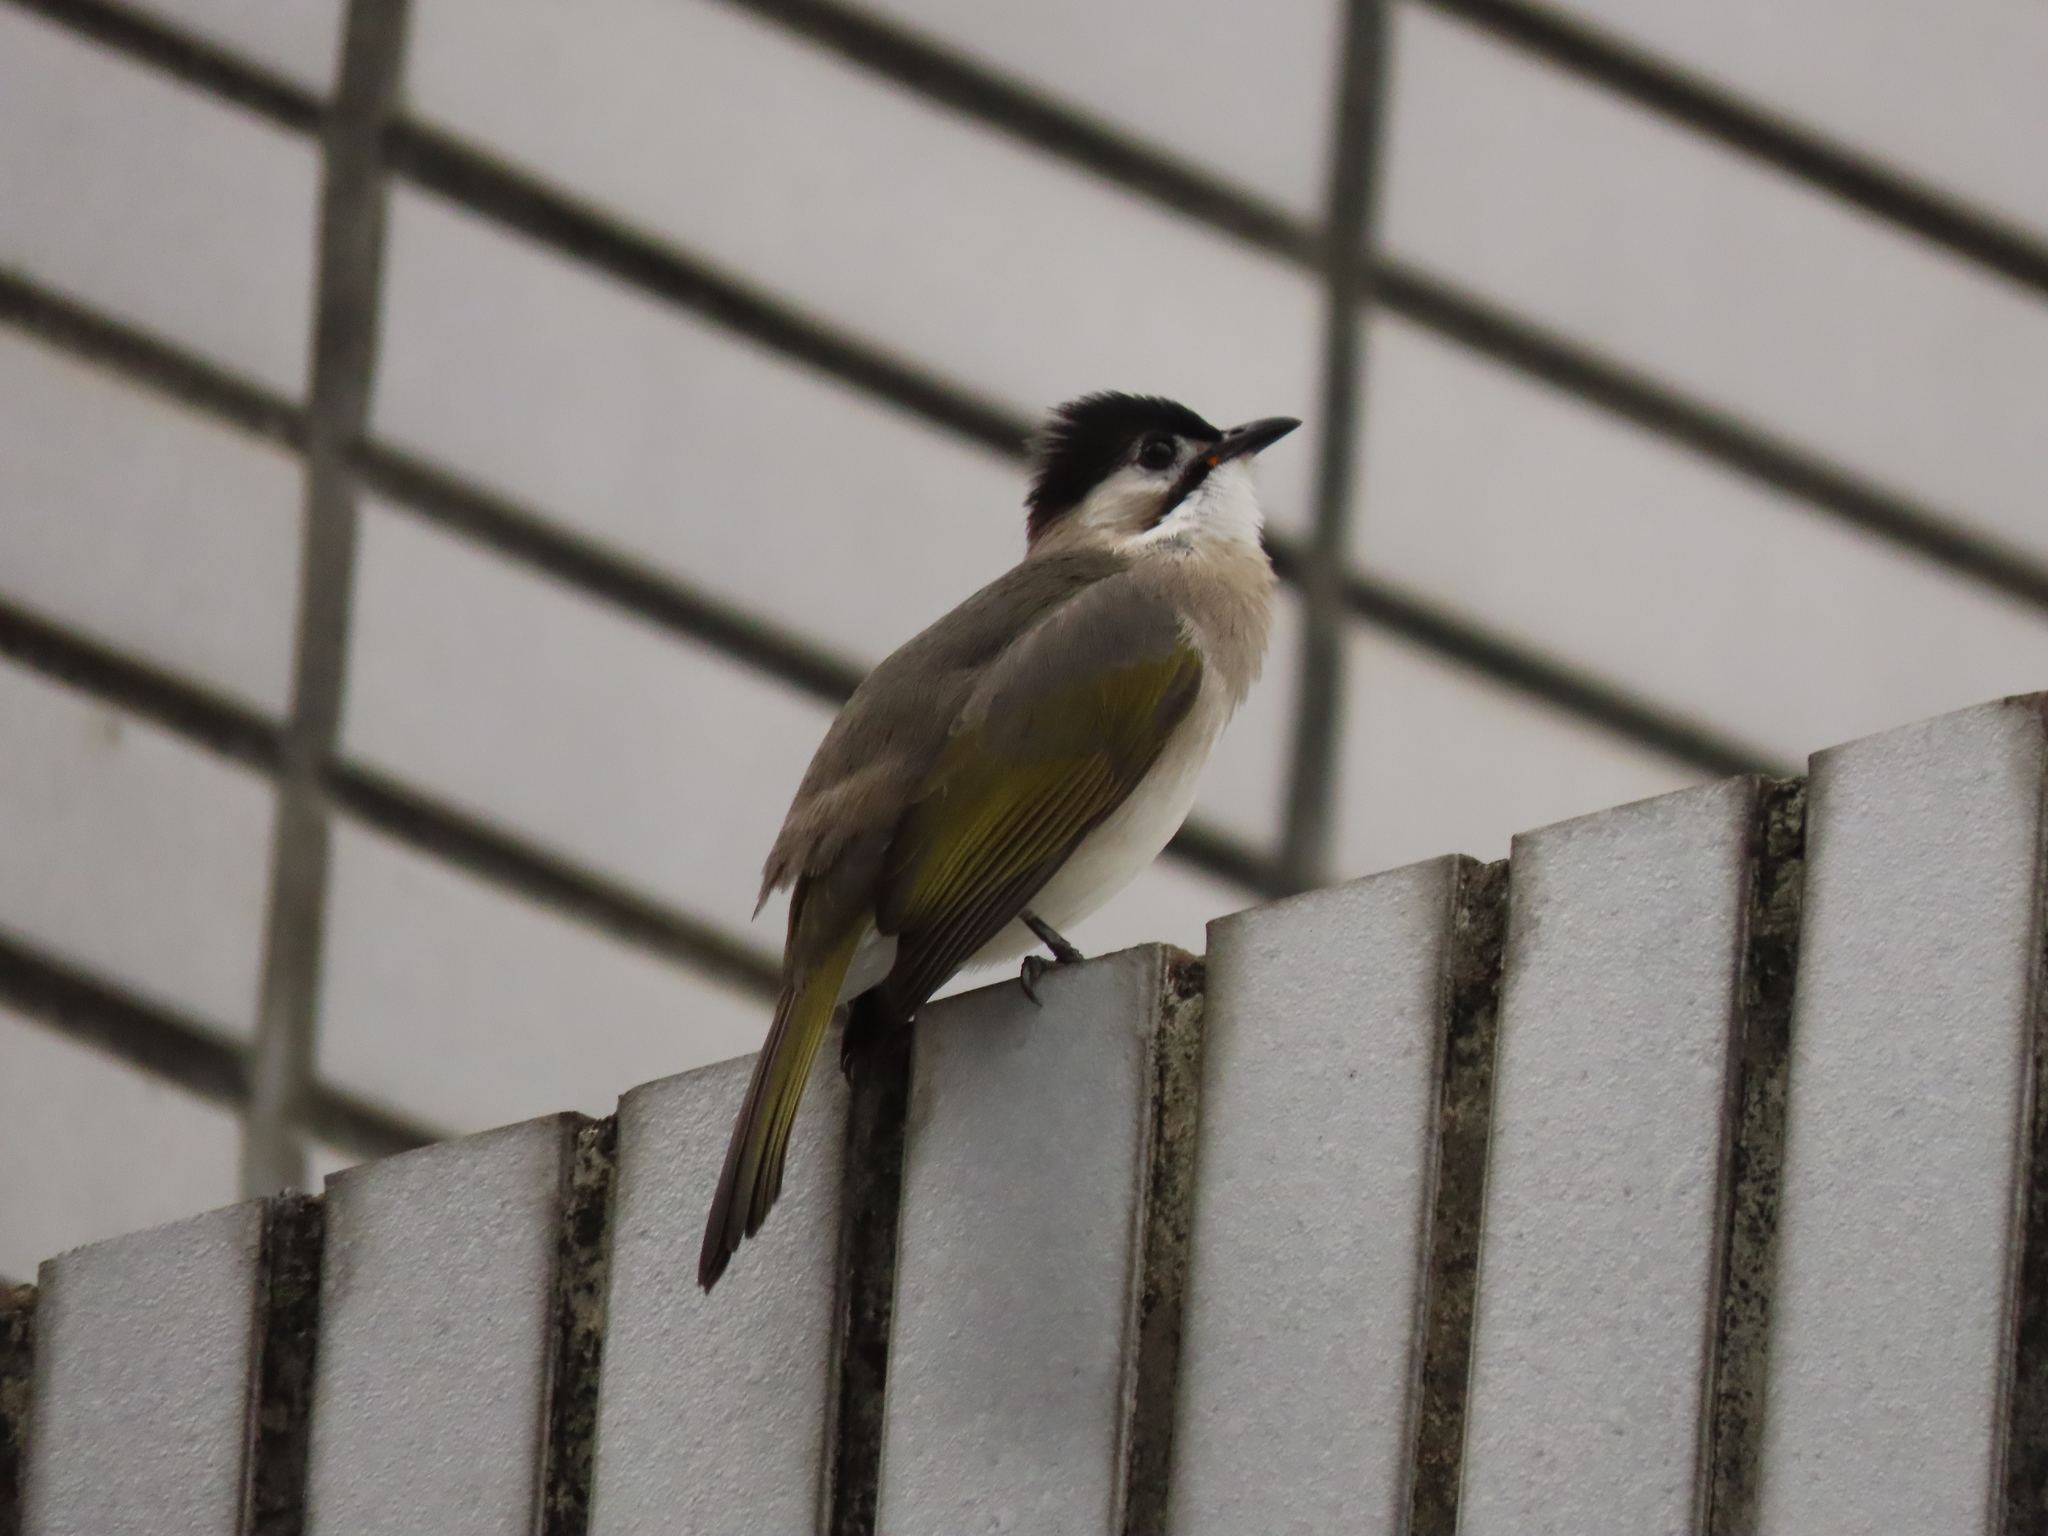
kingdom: Animalia
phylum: Chordata
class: Aves
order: Passeriformes
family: Pycnonotidae
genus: Pycnonotus
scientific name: Pycnonotus taivanus
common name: Styan's bulbul
